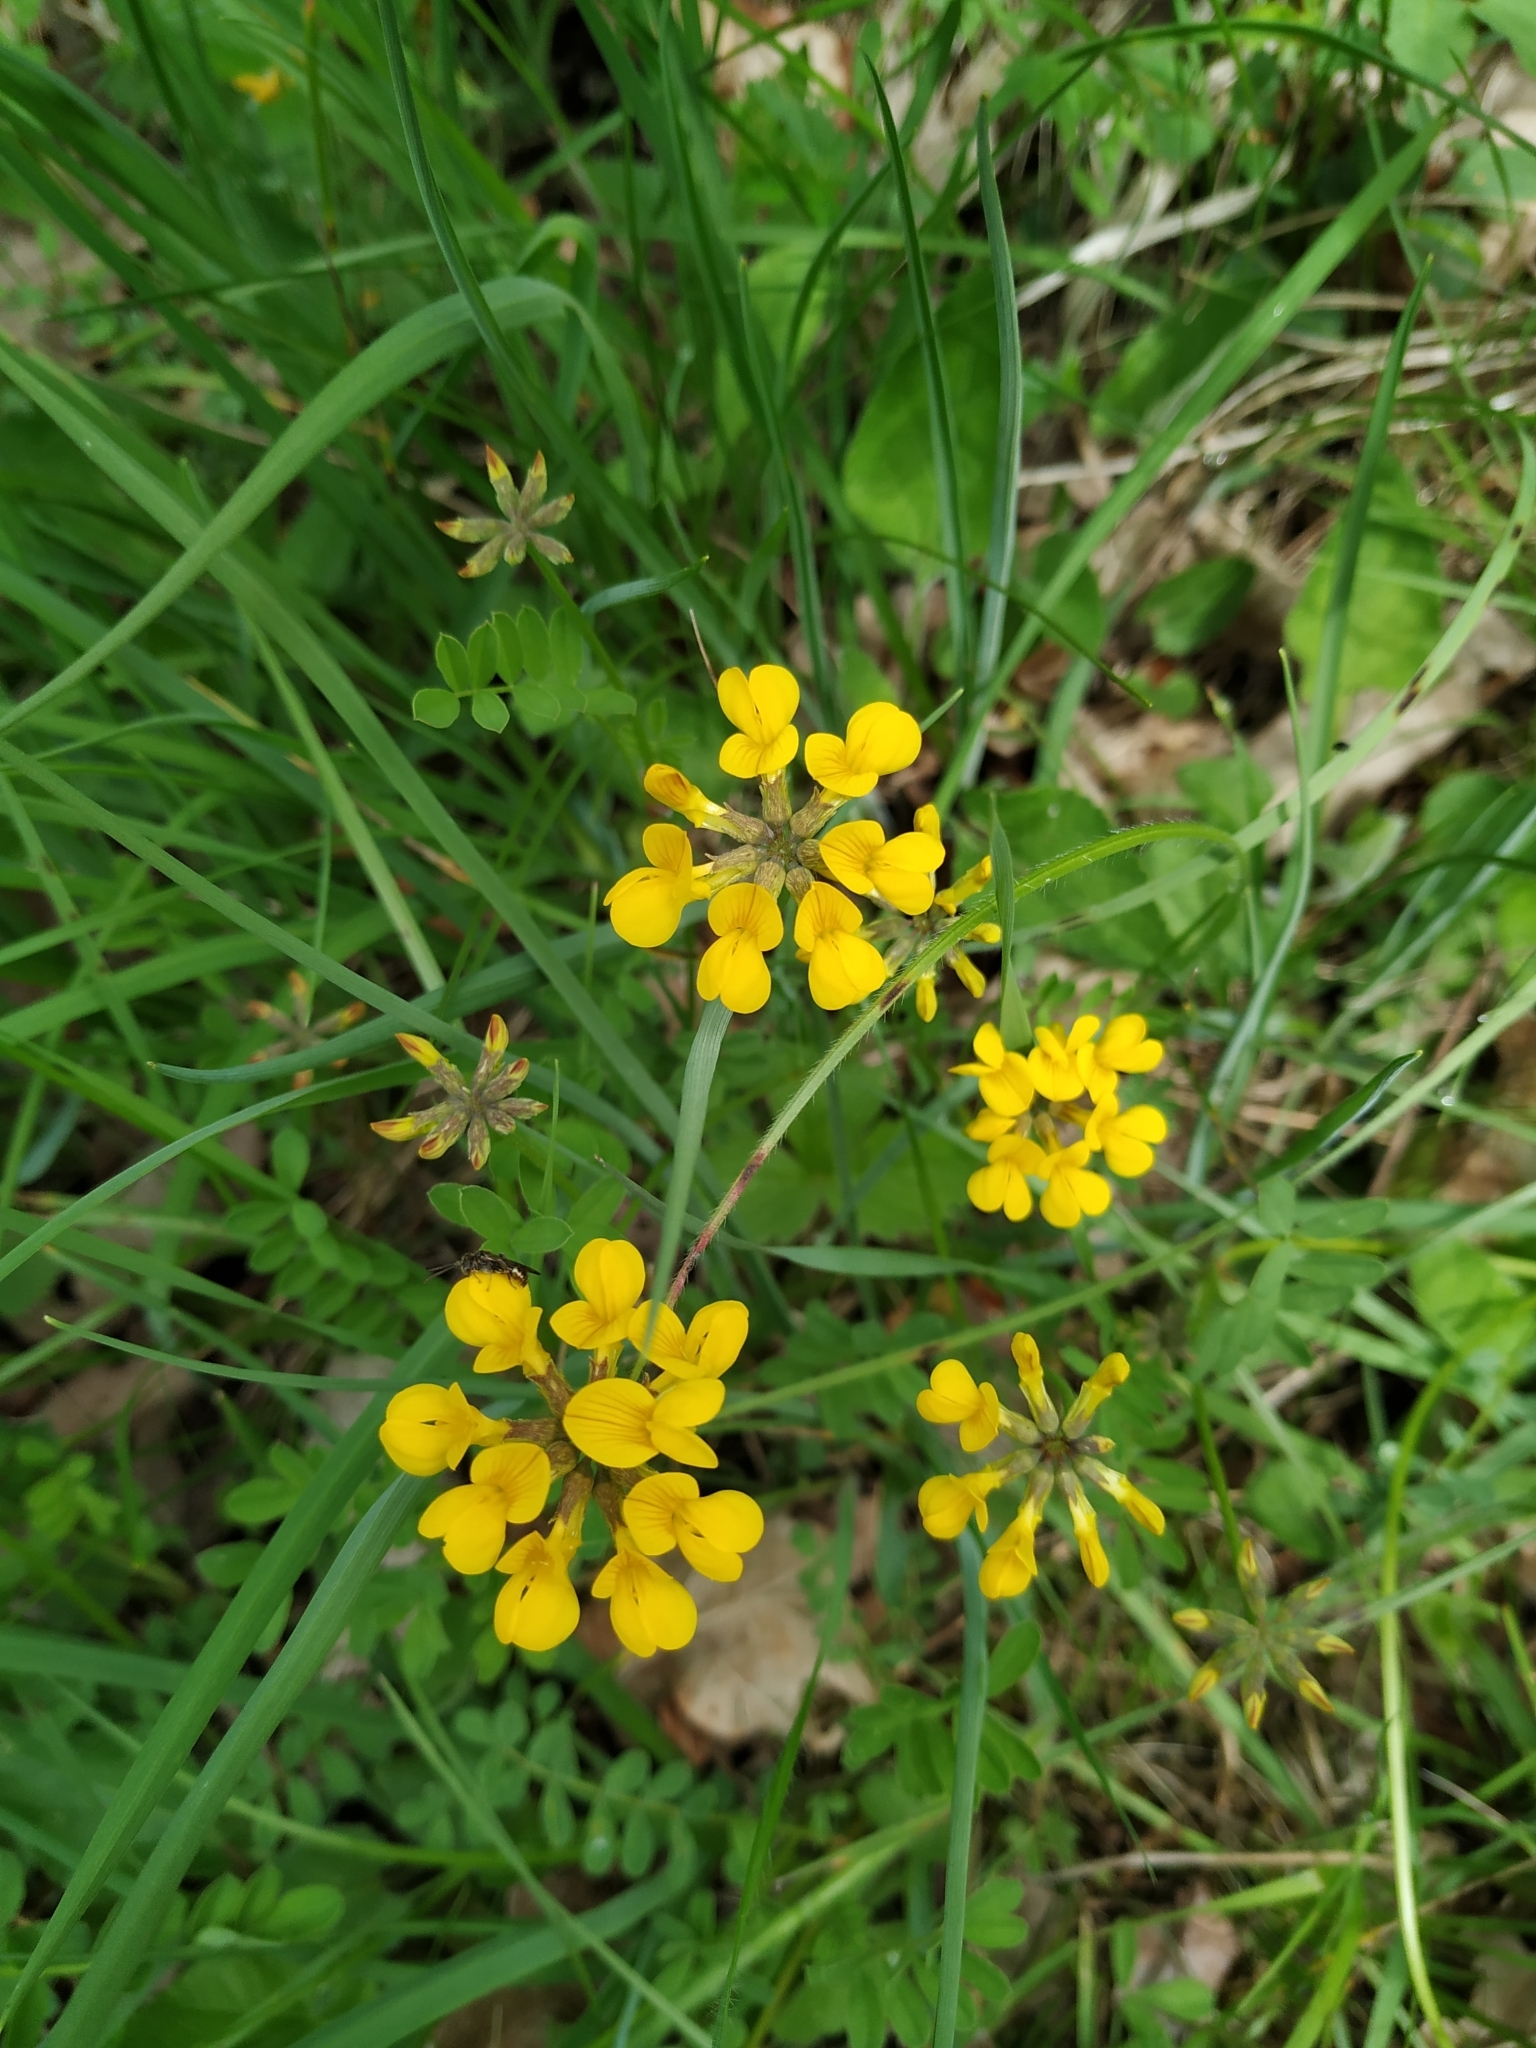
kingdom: Plantae
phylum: Tracheophyta
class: Magnoliopsida
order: Fabales
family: Fabaceae
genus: Hippocrepis
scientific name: Hippocrepis comosa
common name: Horseshoe vetch
